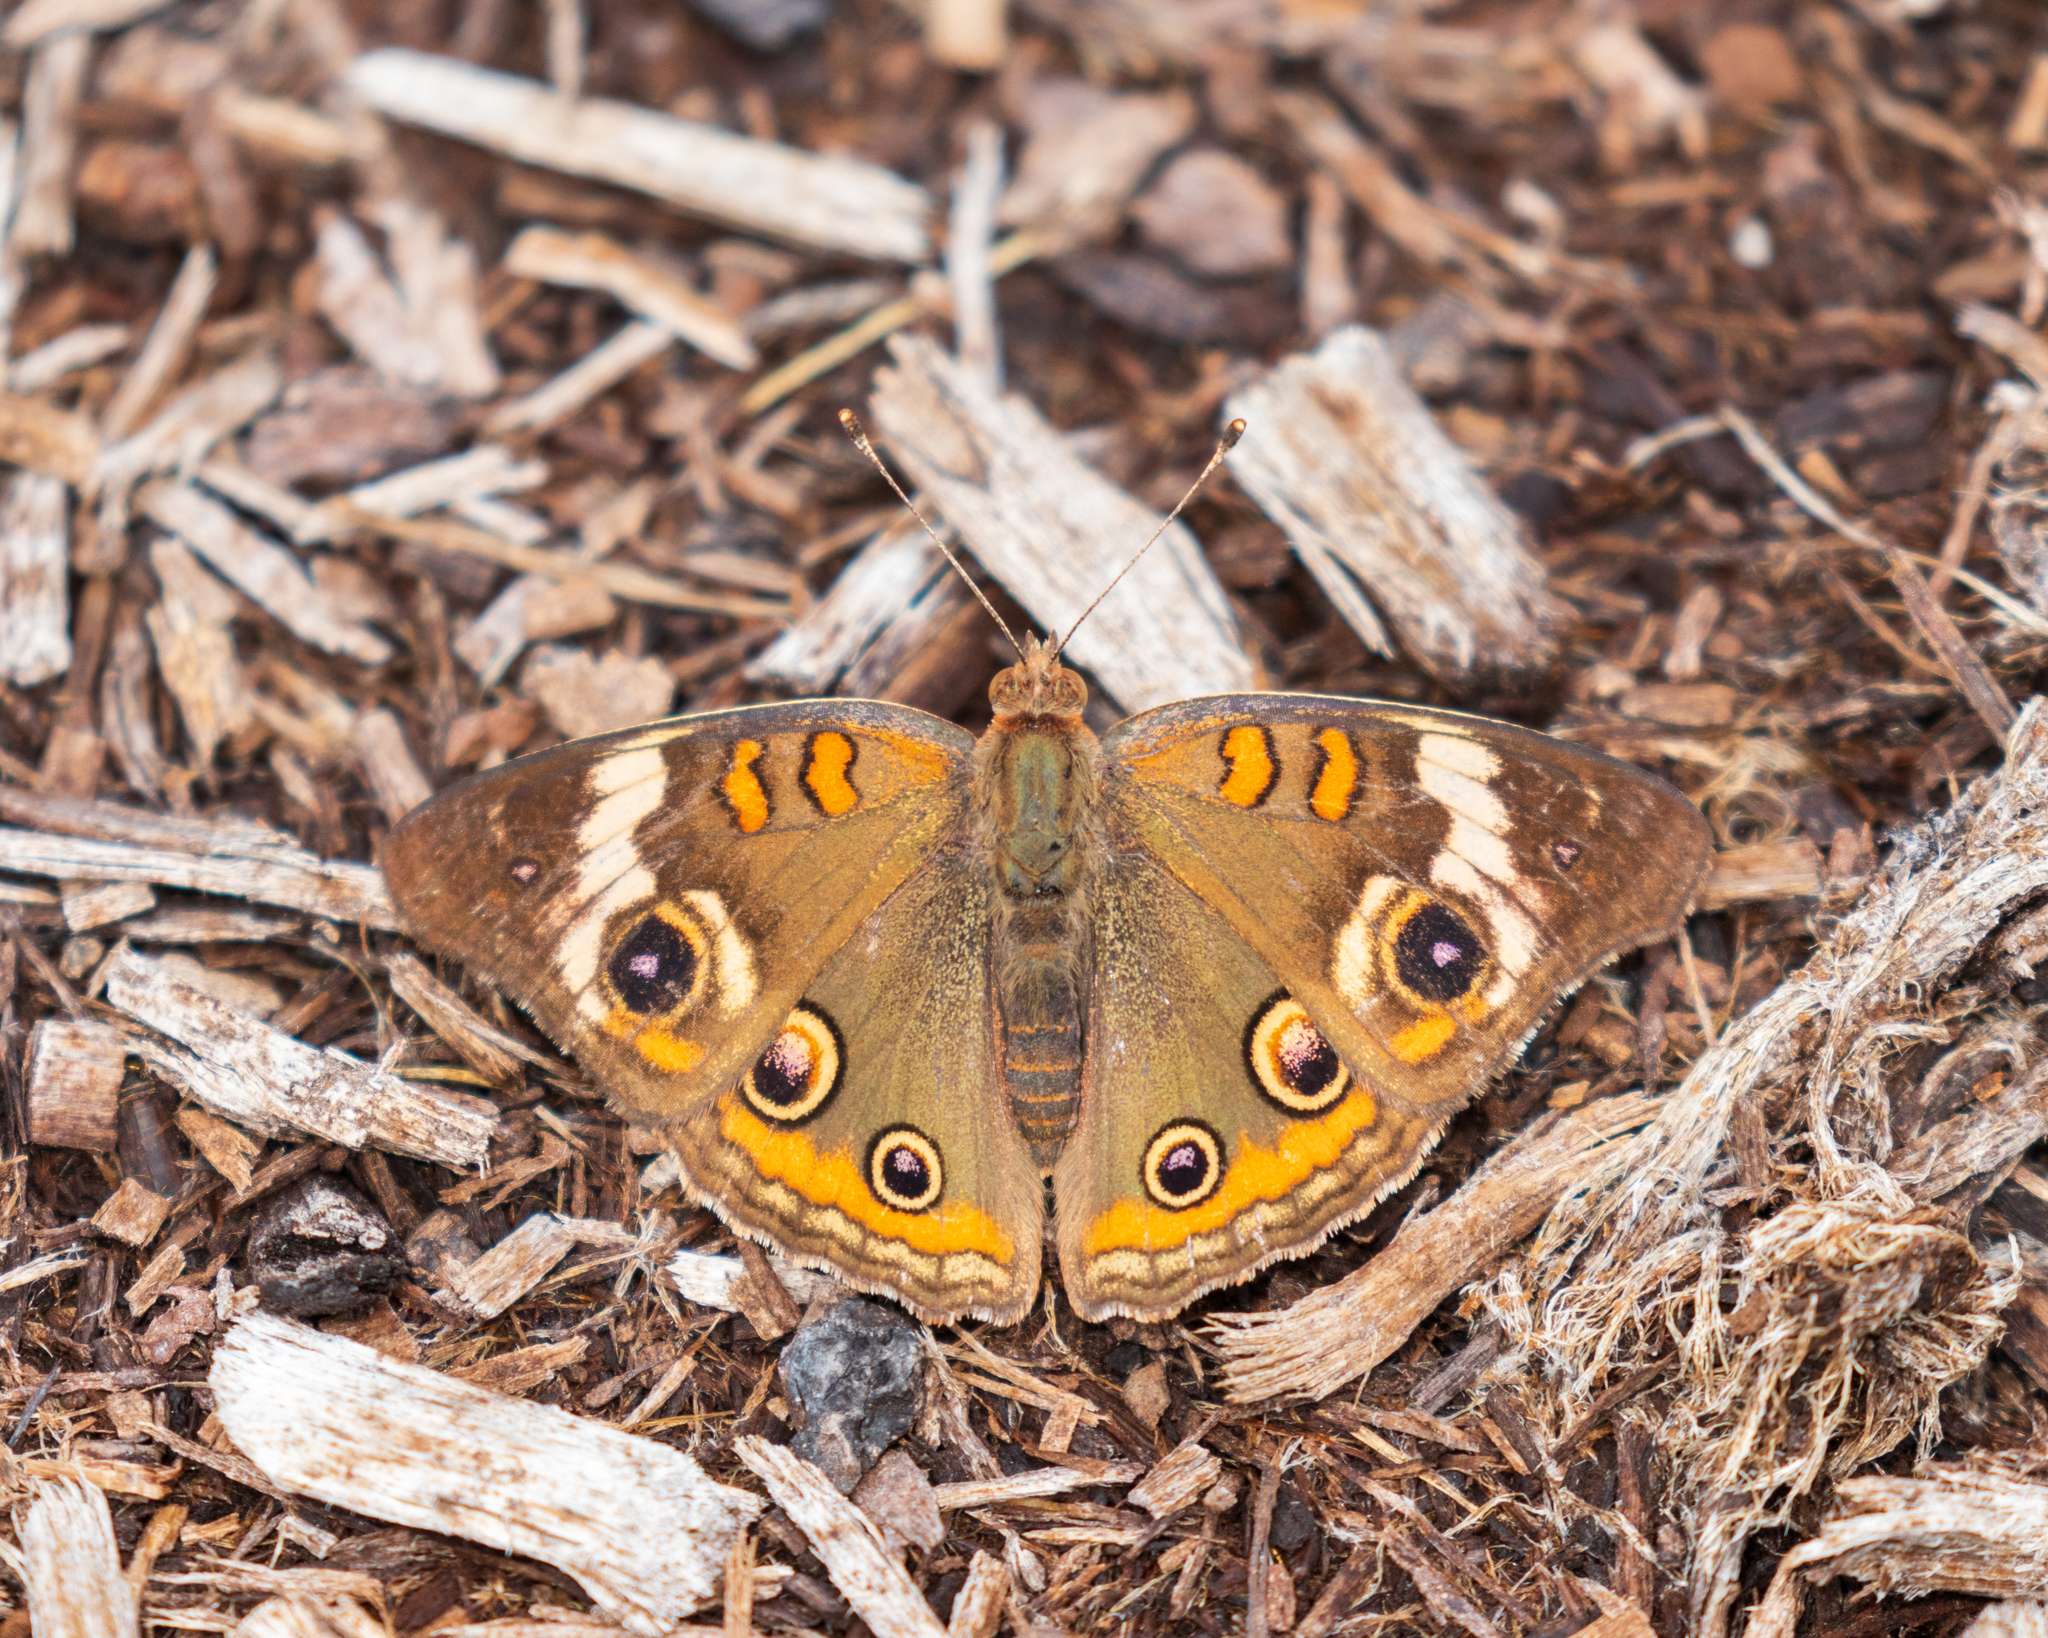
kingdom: Animalia
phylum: Arthropoda
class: Insecta
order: Lepidoptera
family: Nymphalidae
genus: Junonia
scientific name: Junonia coenia
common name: Common buckeye
